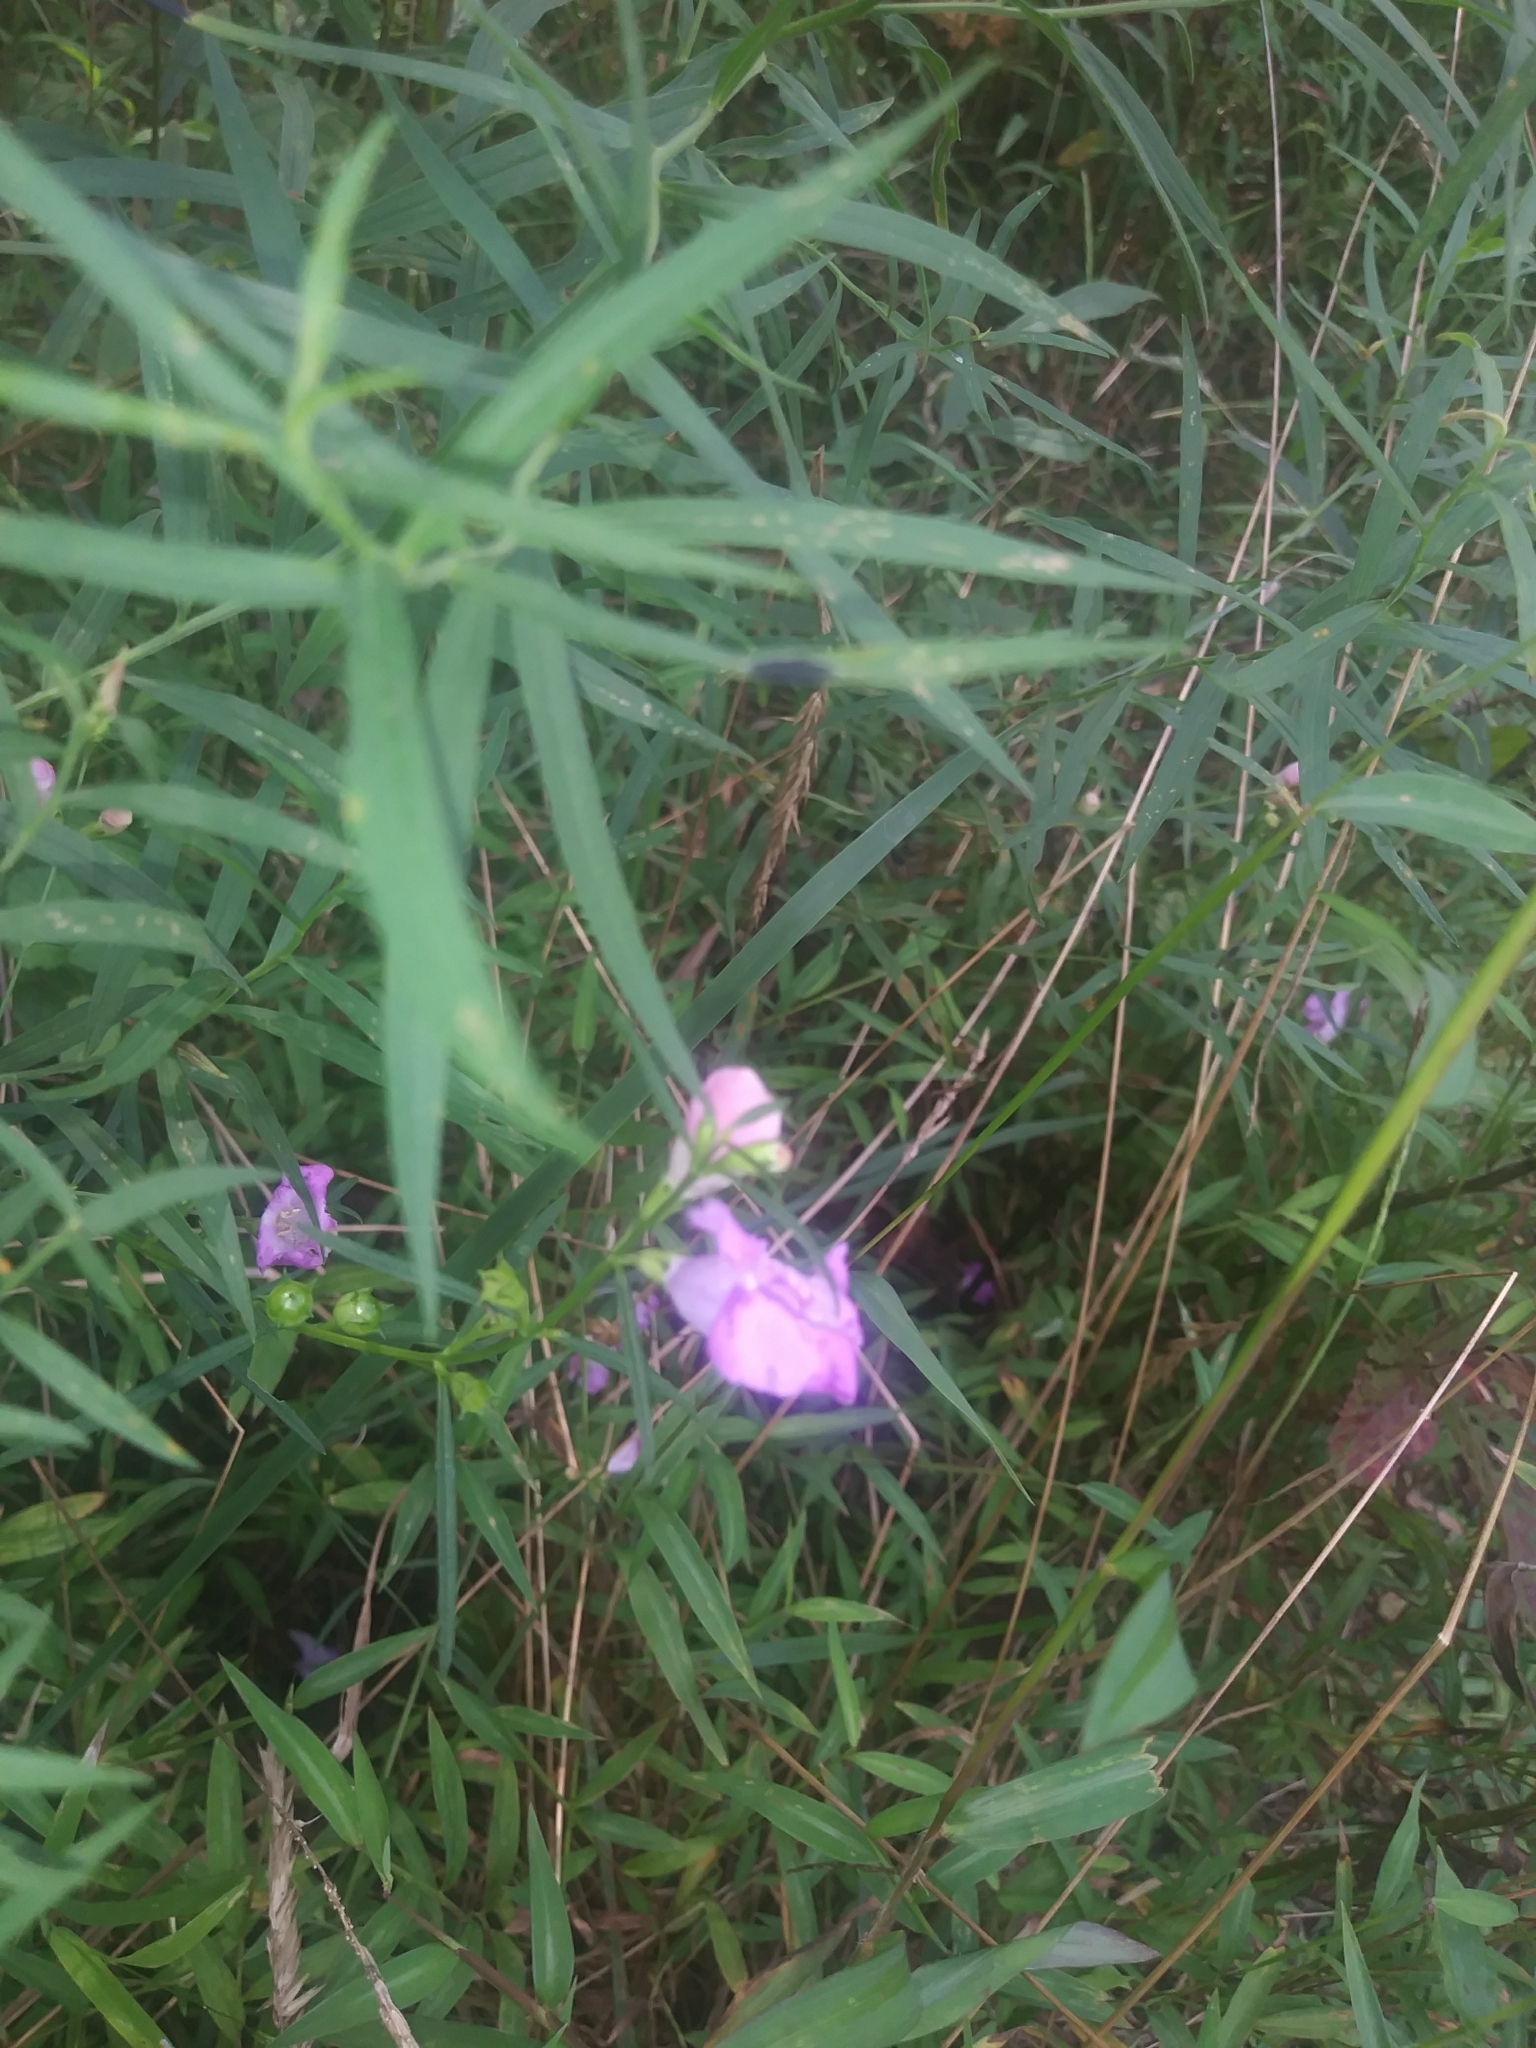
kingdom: Plantae
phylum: Tracheophyta
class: Magnoliopsida
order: Lamiales
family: Orobanchaceae
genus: Agalinis
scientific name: Agalinis purpurea
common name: Purple false foxglove
